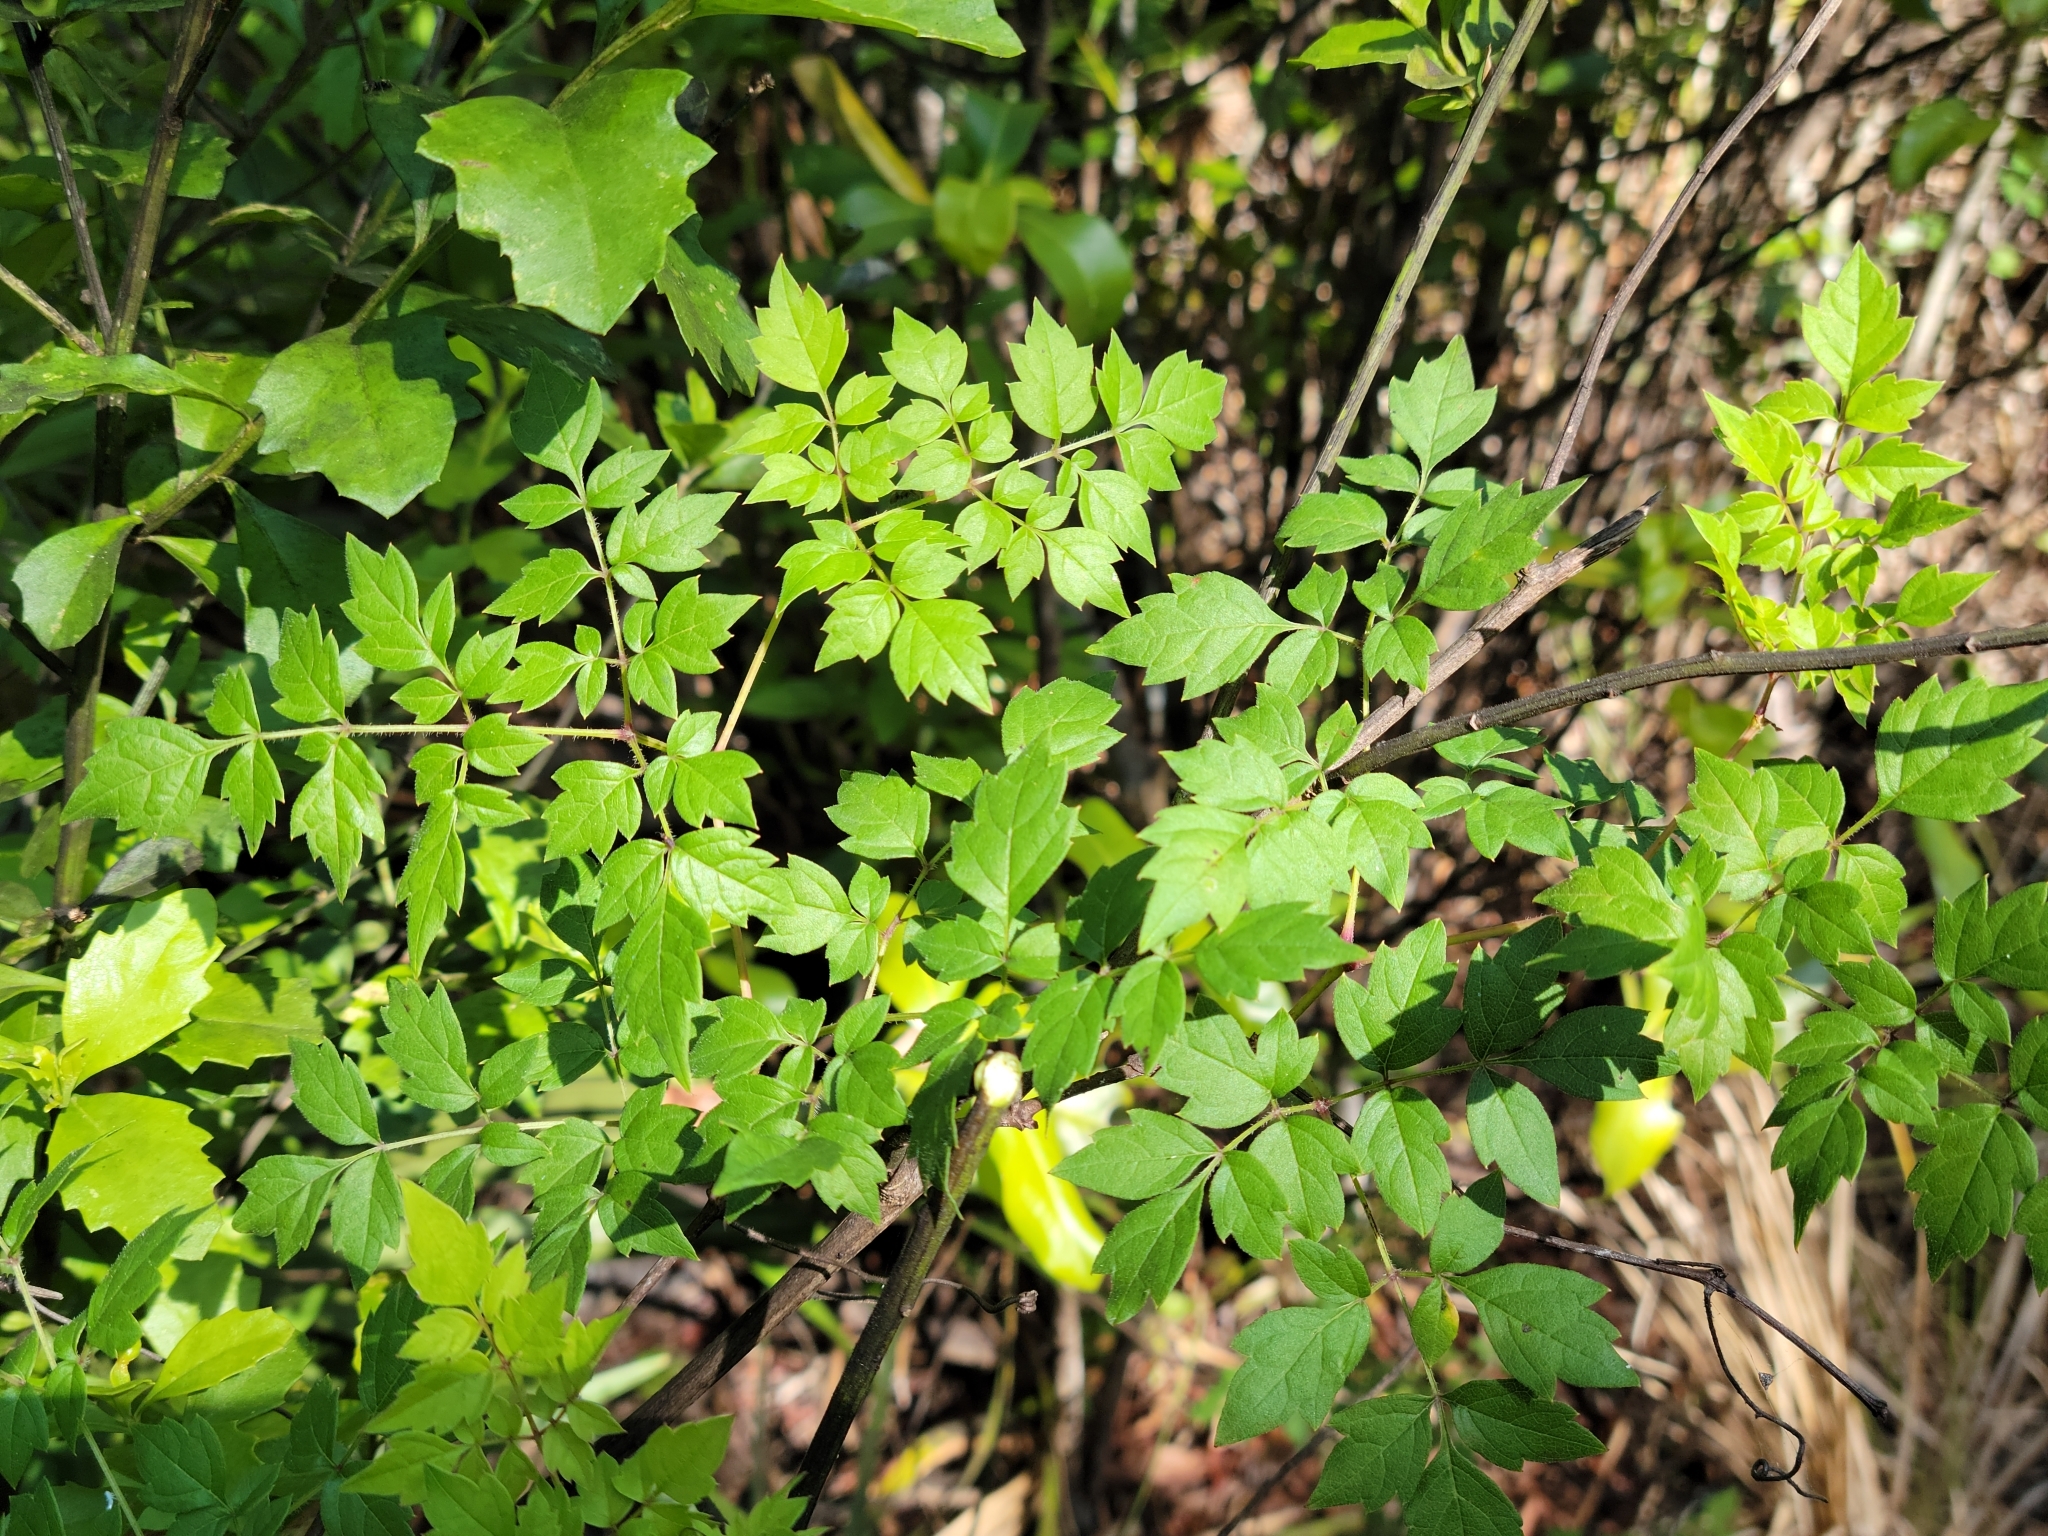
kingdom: Plantae
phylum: Tracheophyta
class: Magnoliopsida
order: Vitales
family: Vitaceae
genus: Nekemias
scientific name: Nekemias arborea
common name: Peppervine
